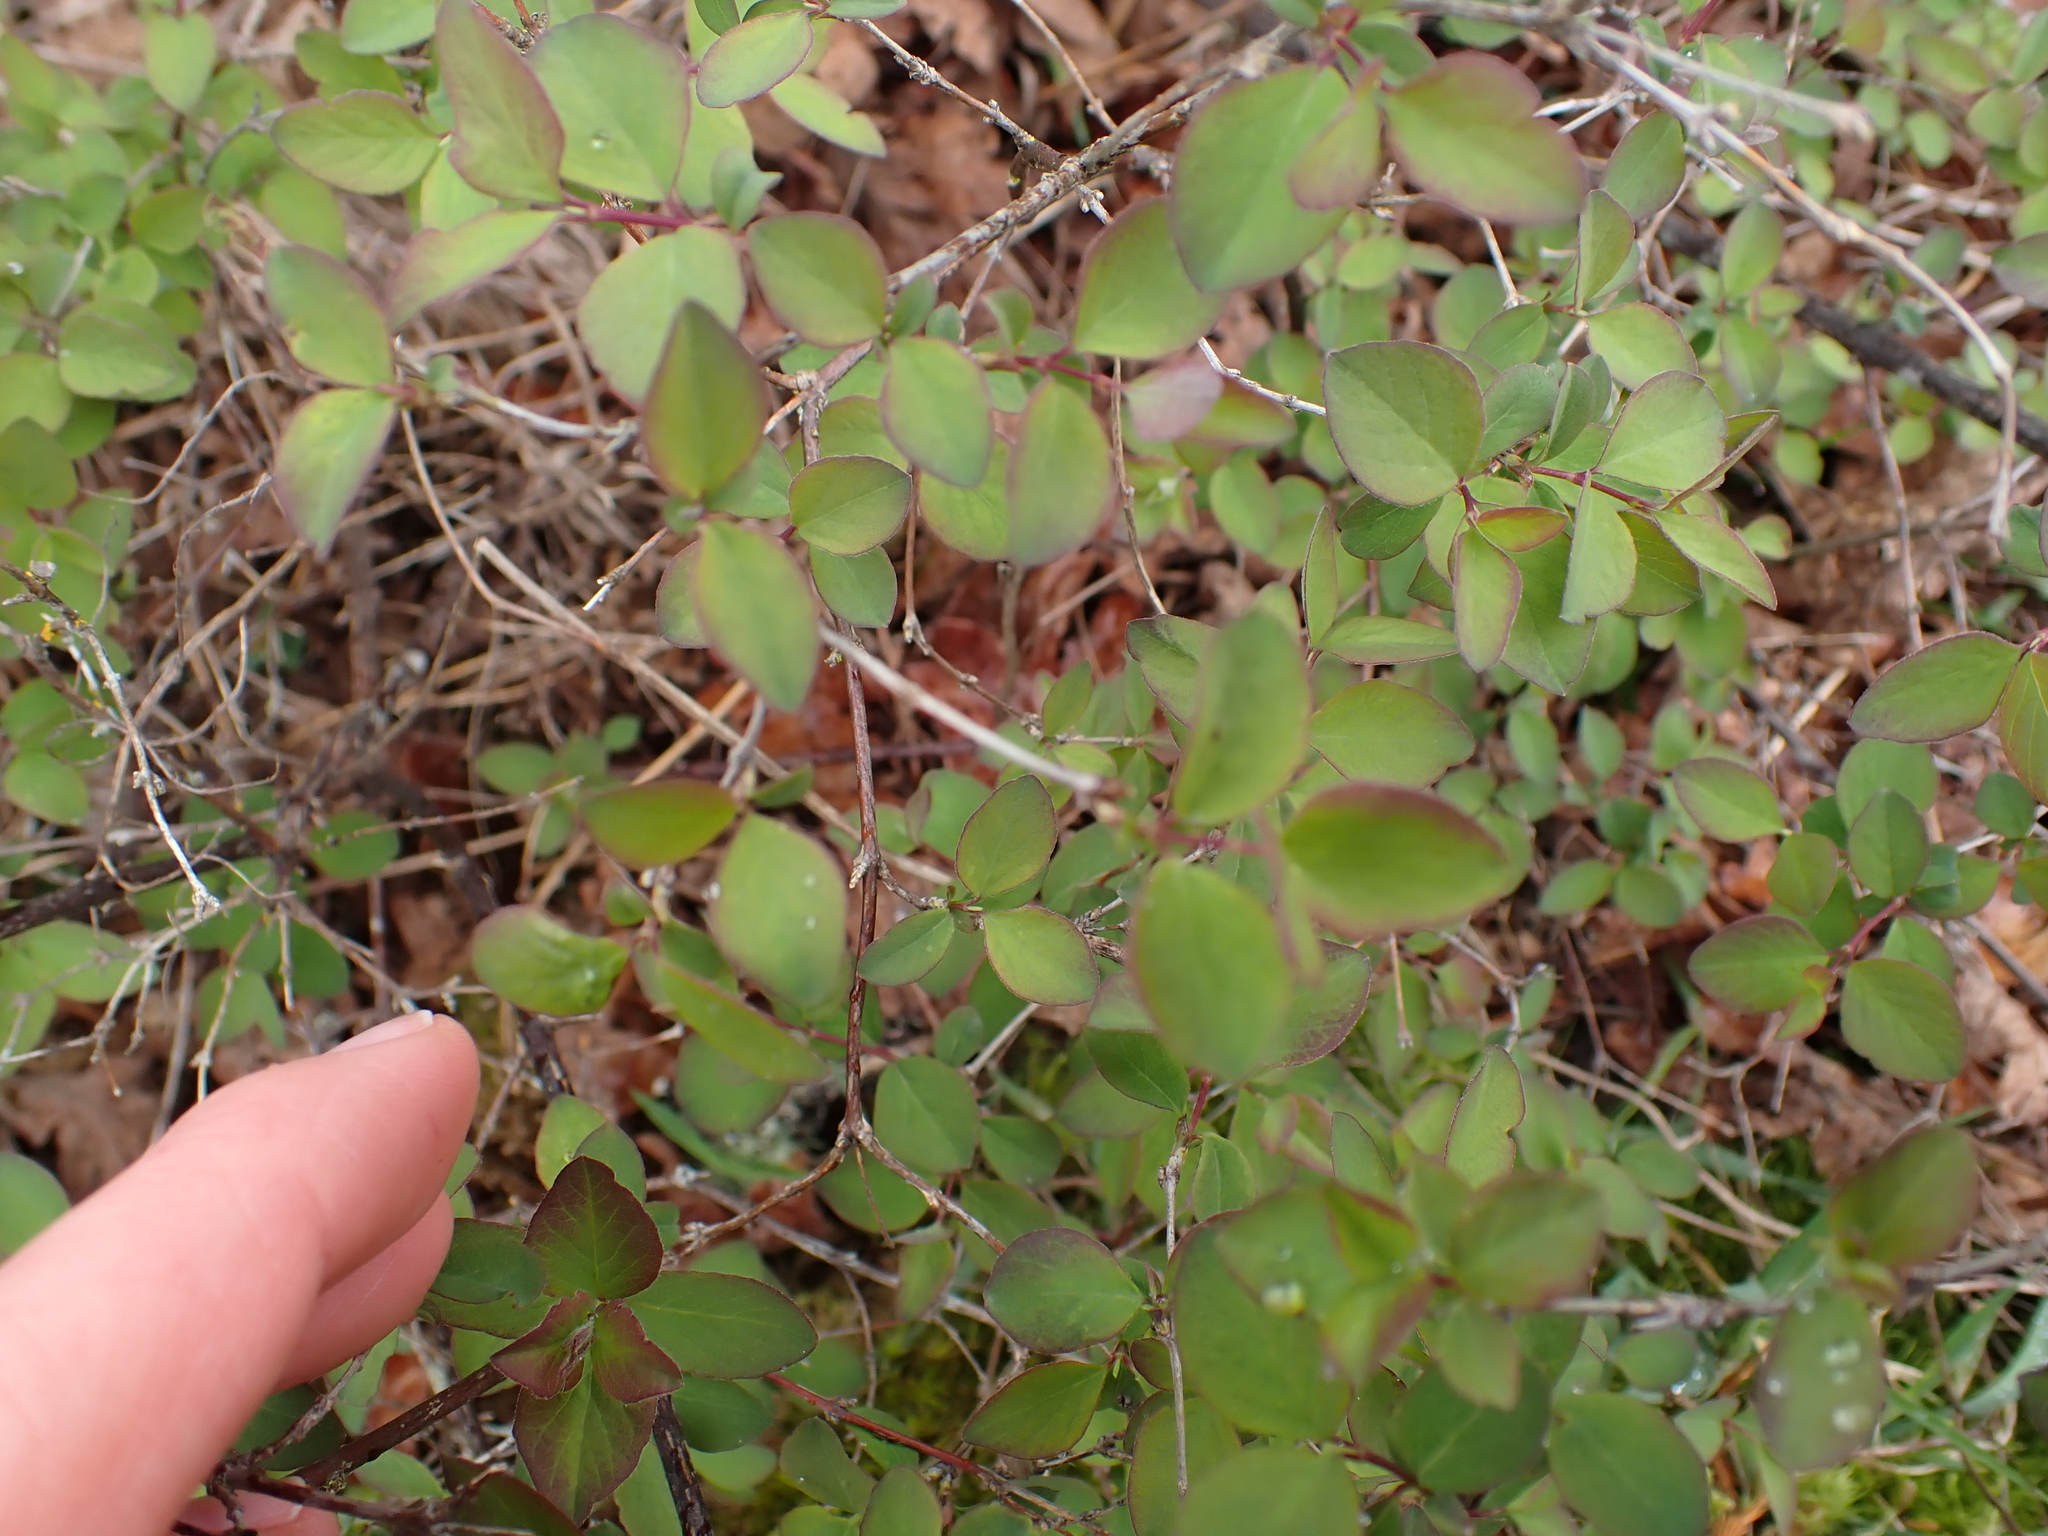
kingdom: Plantae
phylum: Tracheophyta
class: Magnoliopsida
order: Dipsacales
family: Caprifoliaceae
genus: Symphoricarpos
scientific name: Symphoricarpos albus
